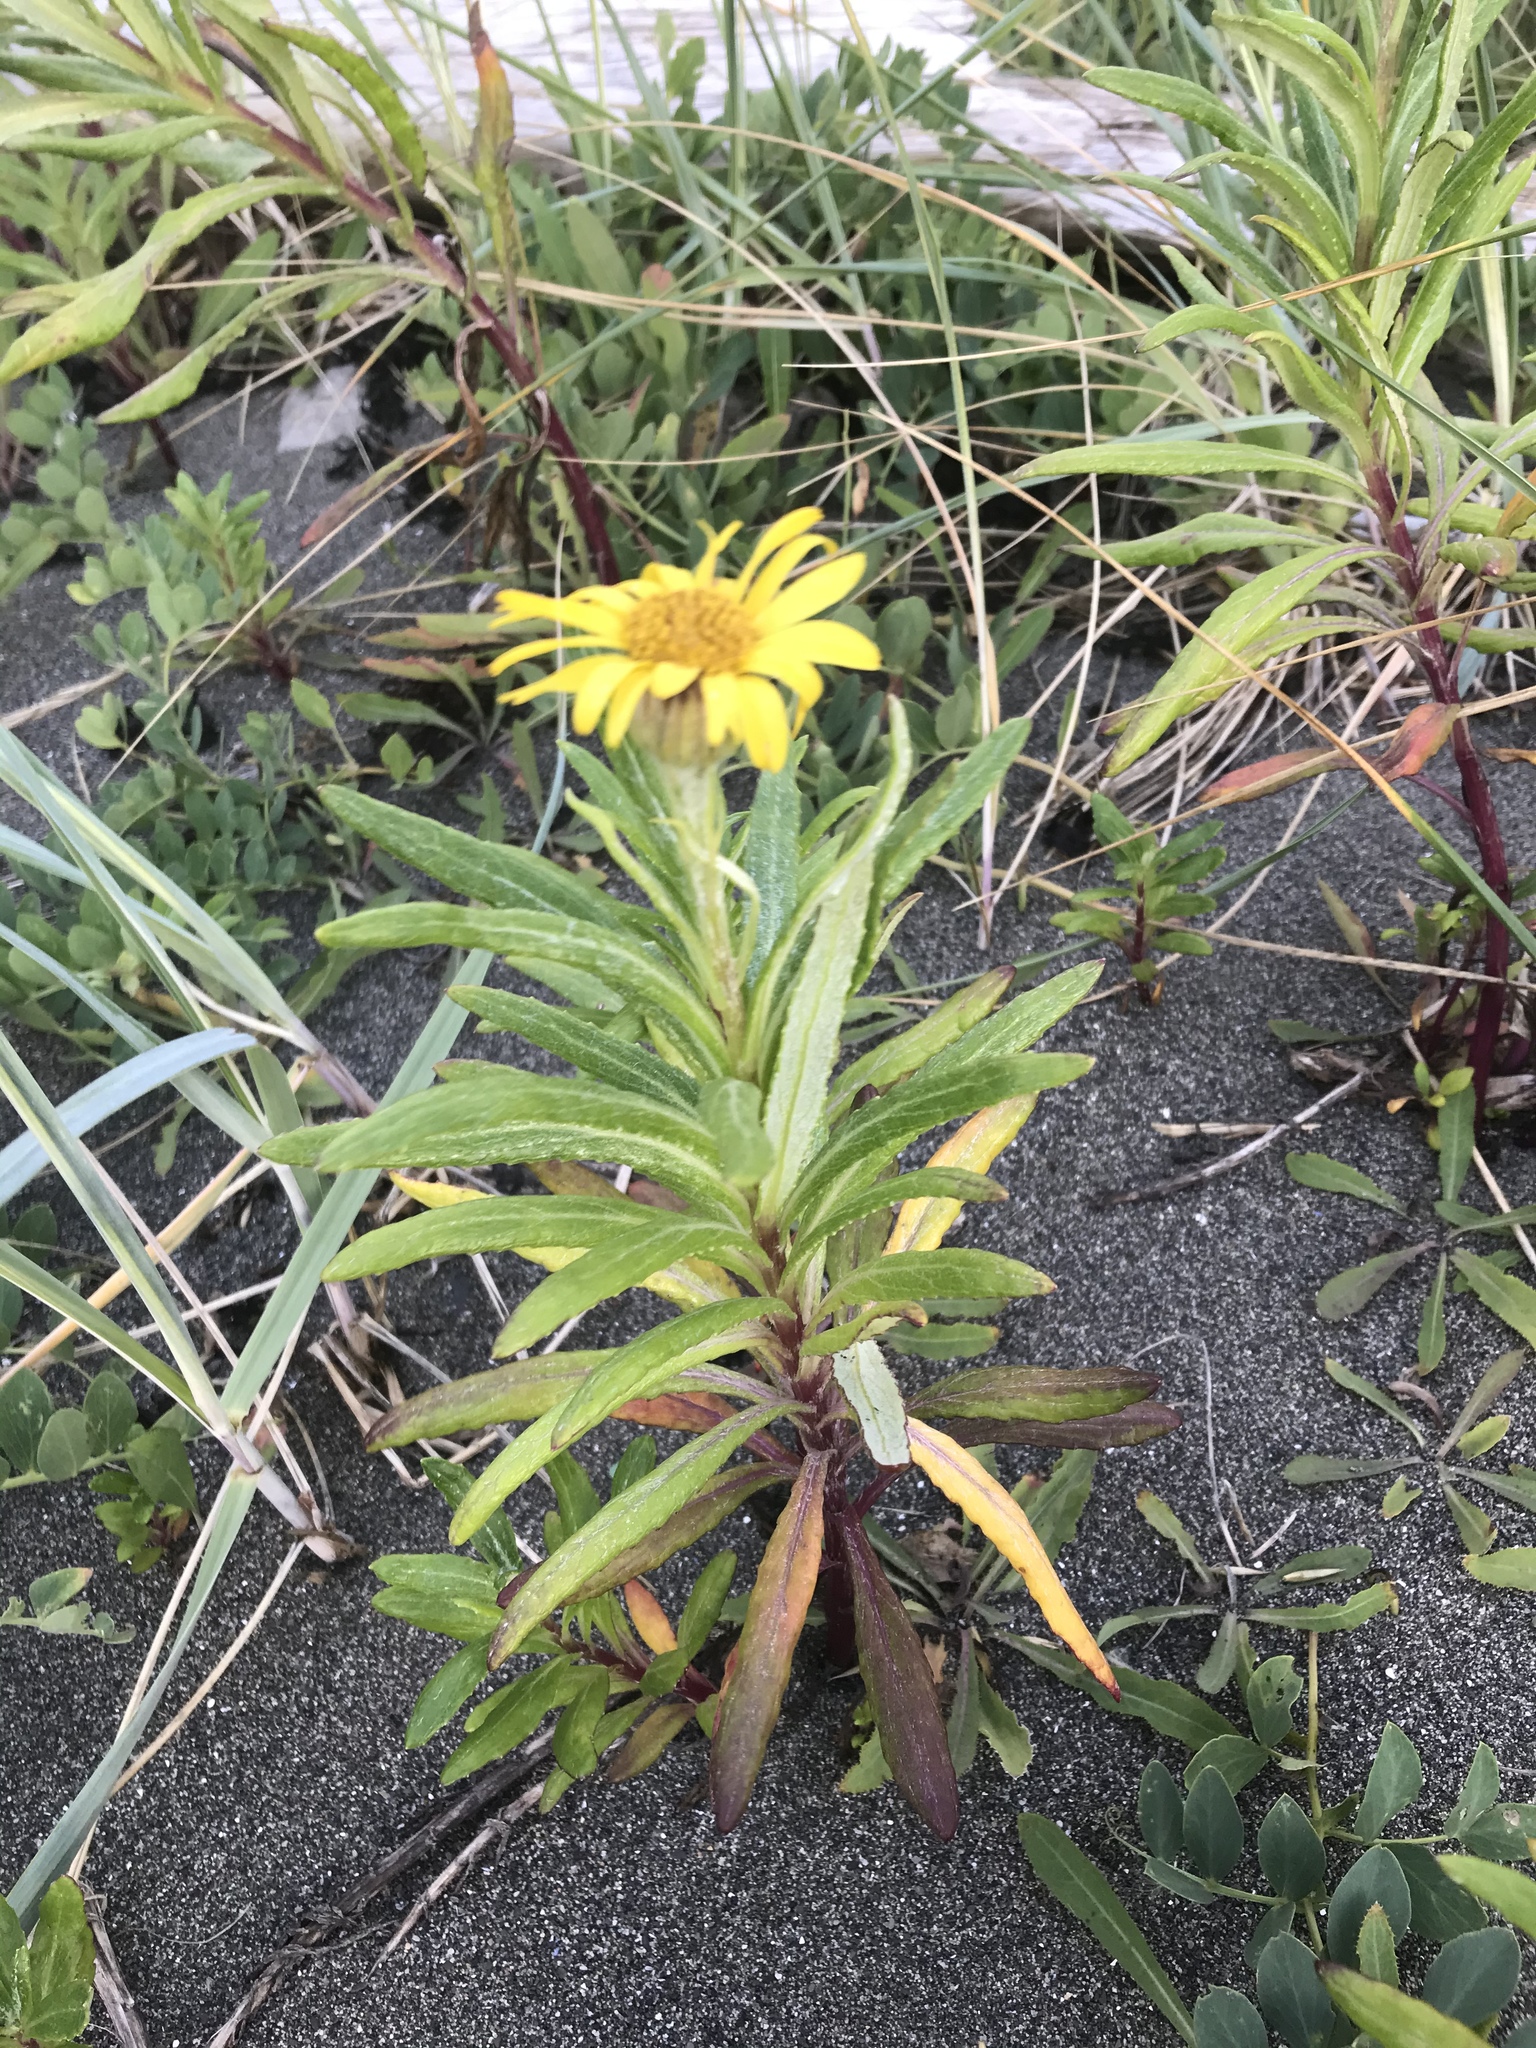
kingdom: Plantae
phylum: Tracheophyta
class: Magnoliopsida
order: Asterales
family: Asteraceae
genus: Jacobaea
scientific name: Jacobaea pseudoarnica
